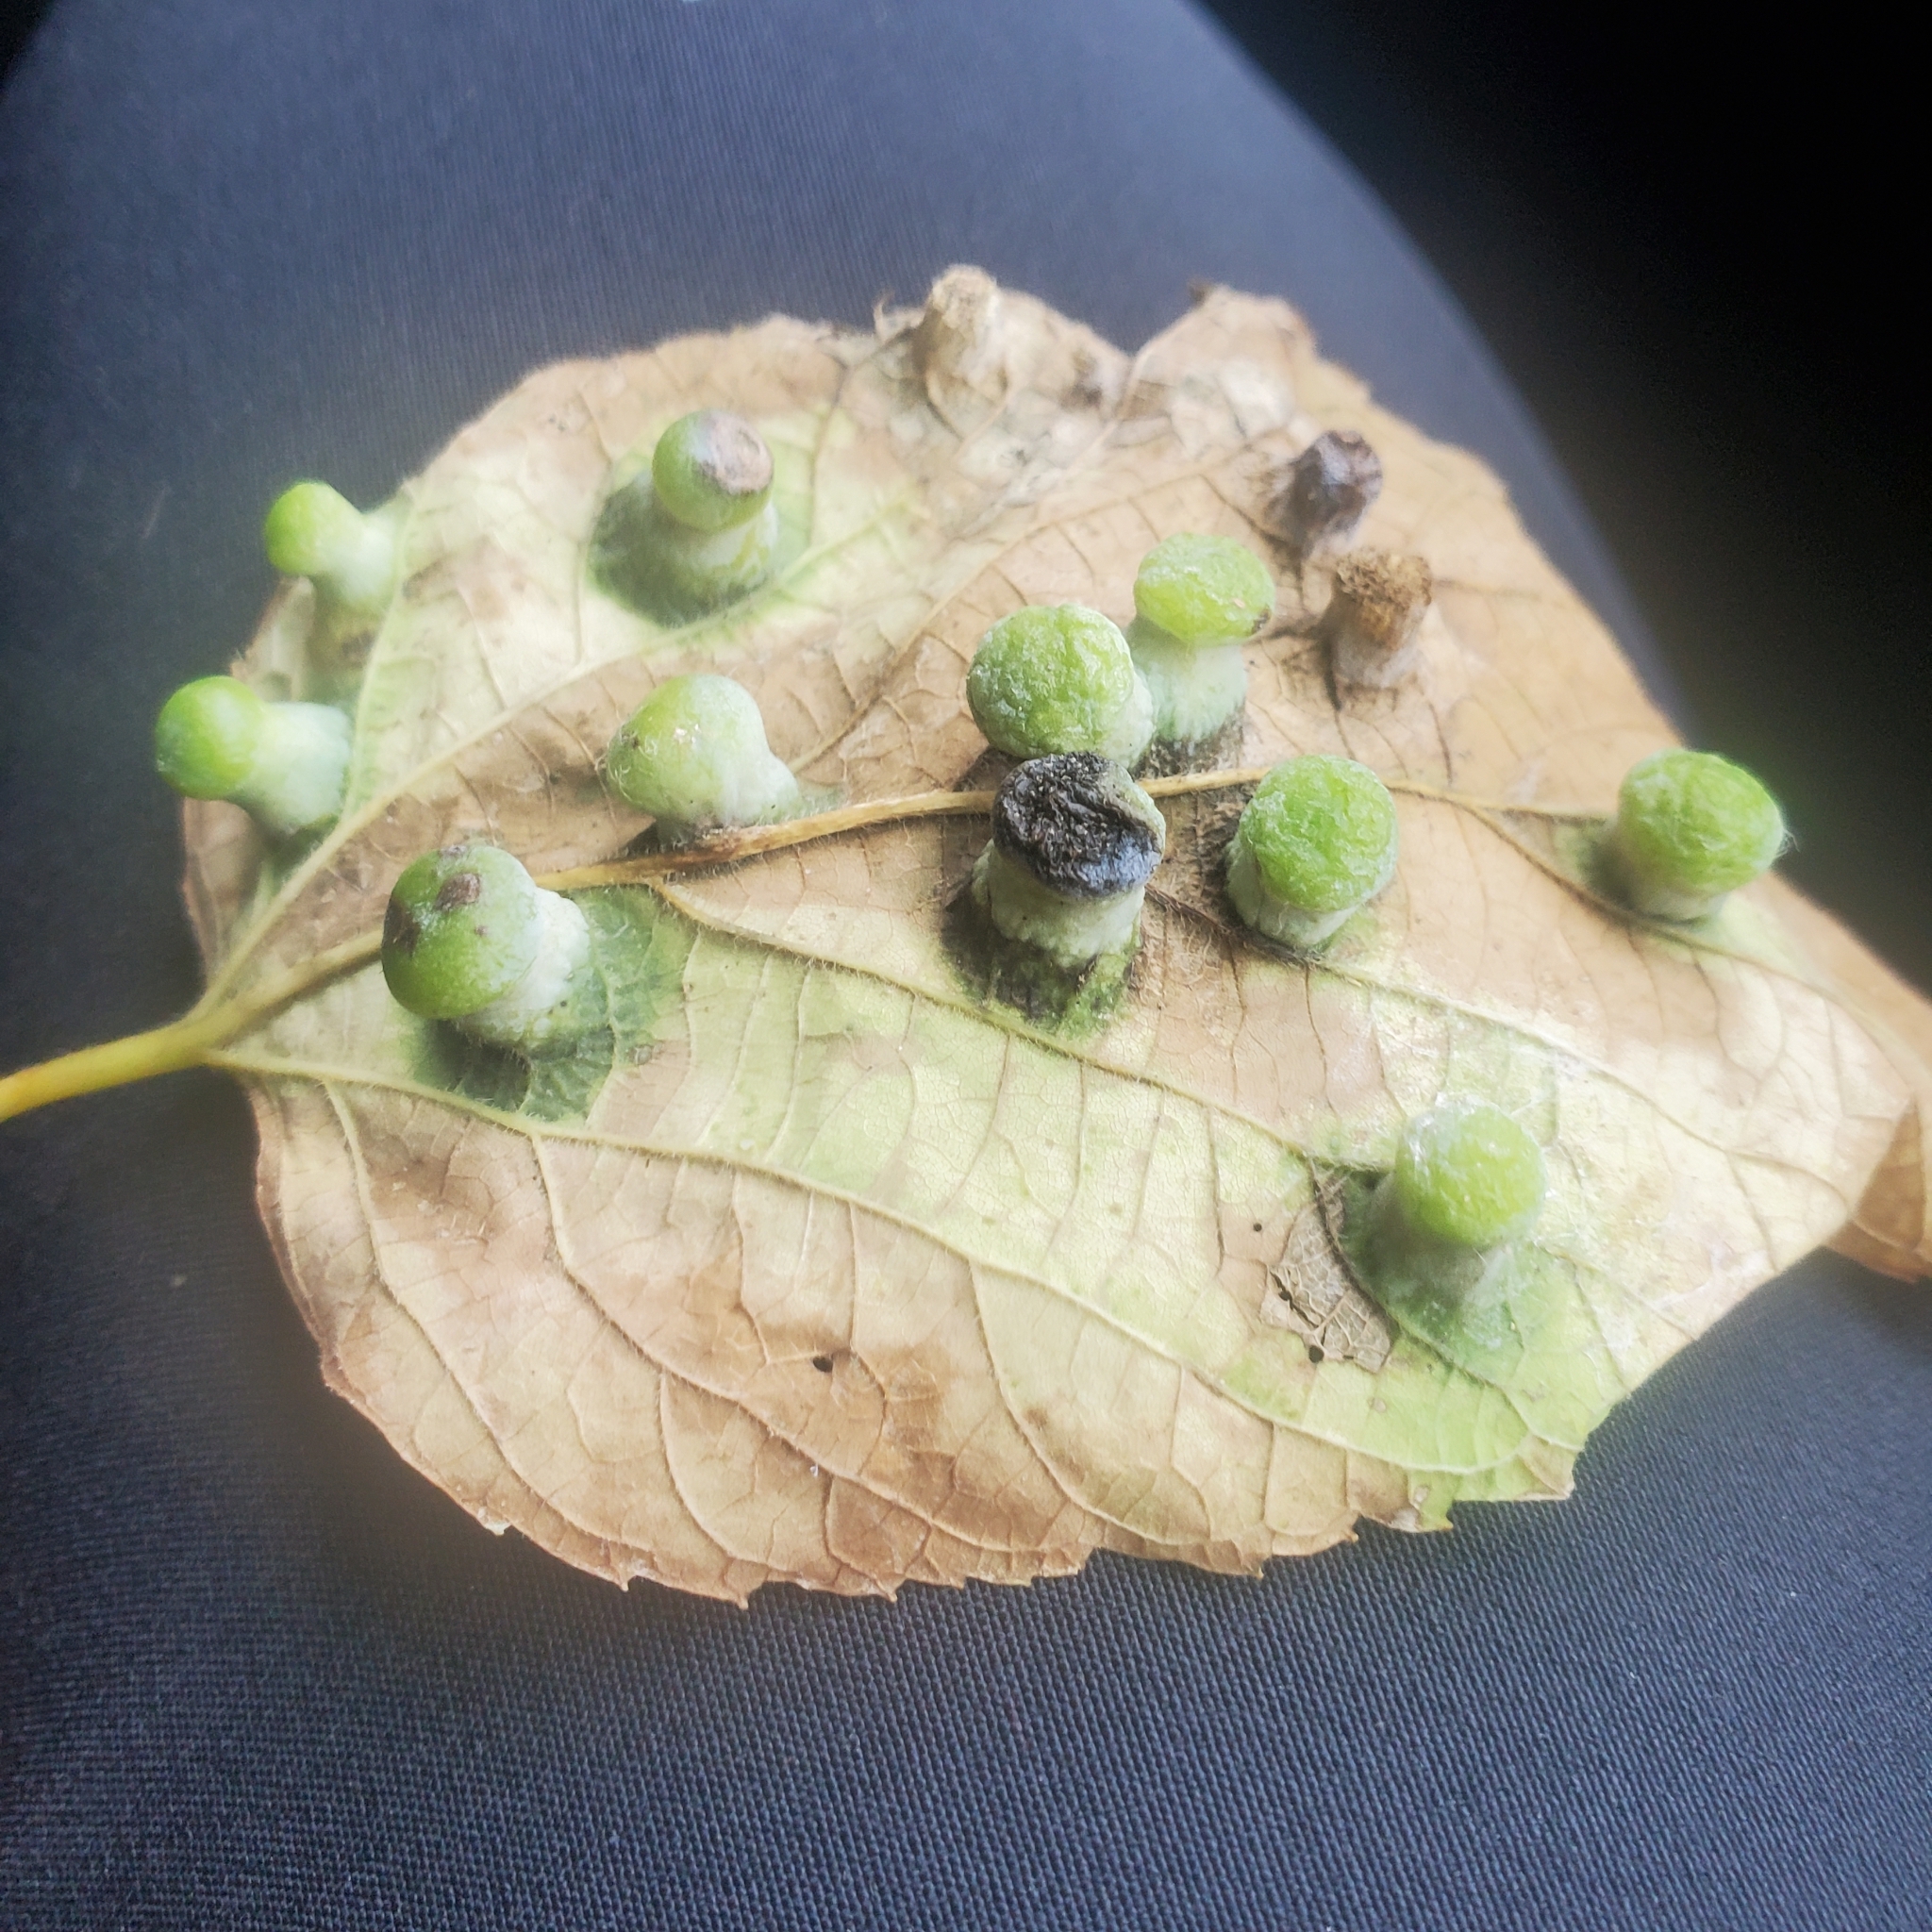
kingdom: Animalia
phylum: Arthropoda
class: Insecta
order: Hemiptera
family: Aphalaridae
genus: Pachypsylla
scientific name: Pachypsylla celtidismamma
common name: Hackberry nipplegall psyllid
